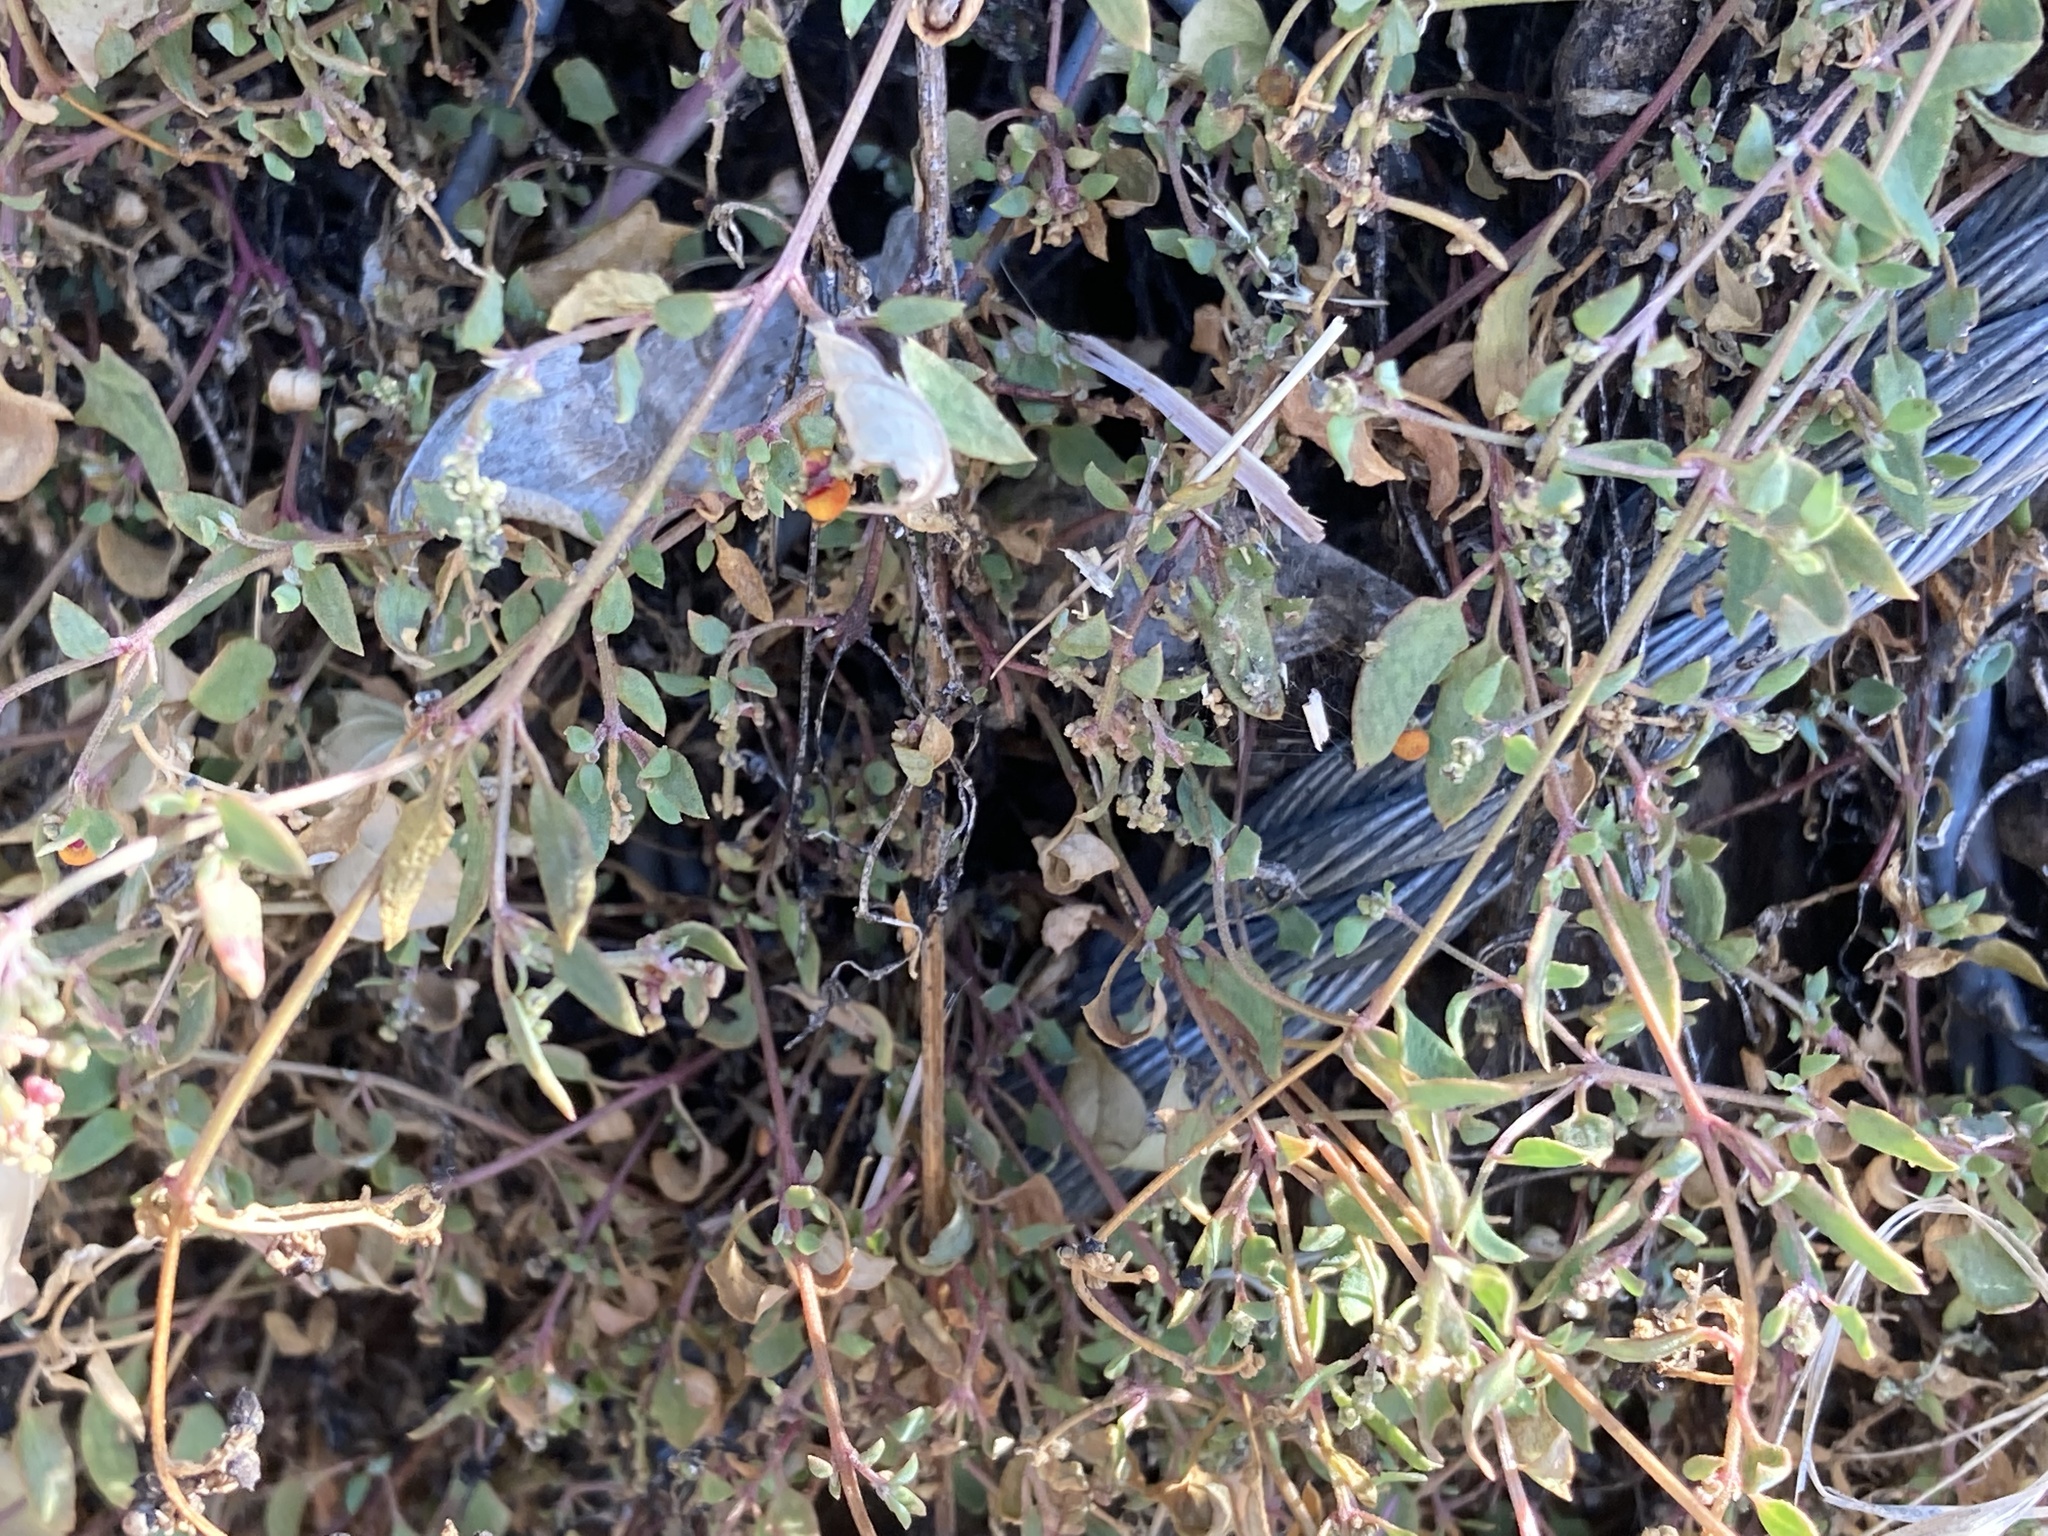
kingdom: Plantae
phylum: Tracheophyta
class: Magnoliopsida
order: Caryophyllales
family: Amaranthaceae
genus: Chenopodium
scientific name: Chenopodium nutans
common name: Climbing-saltbush
